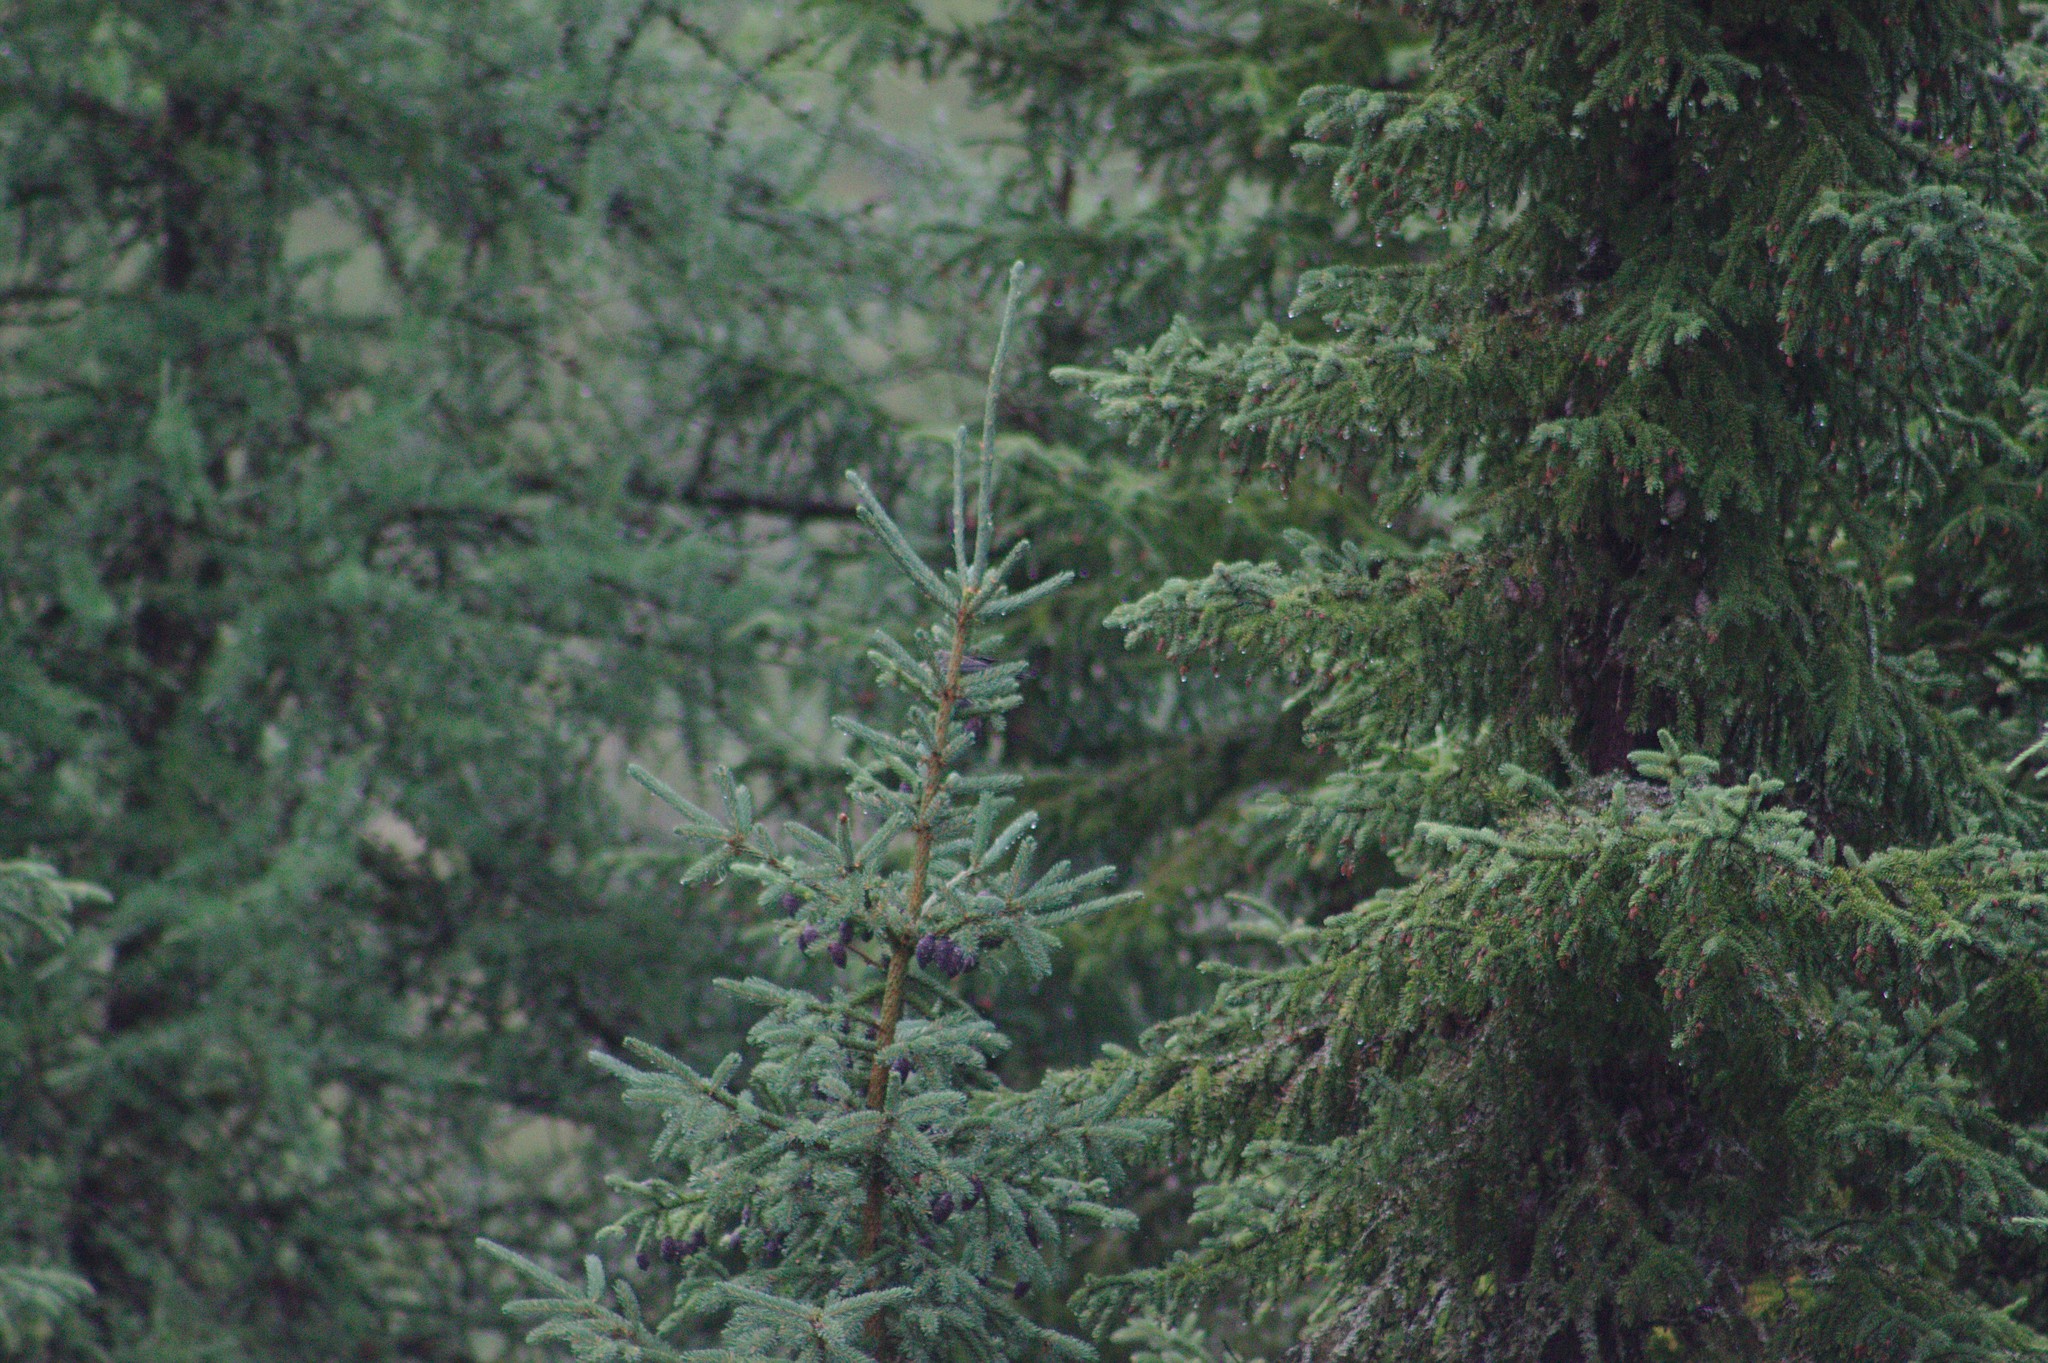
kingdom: Plantae
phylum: Tracheophyta
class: Pinopsida
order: Pinales
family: Pinaceae
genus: Picea
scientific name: Picea mariana
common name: Black spruce
